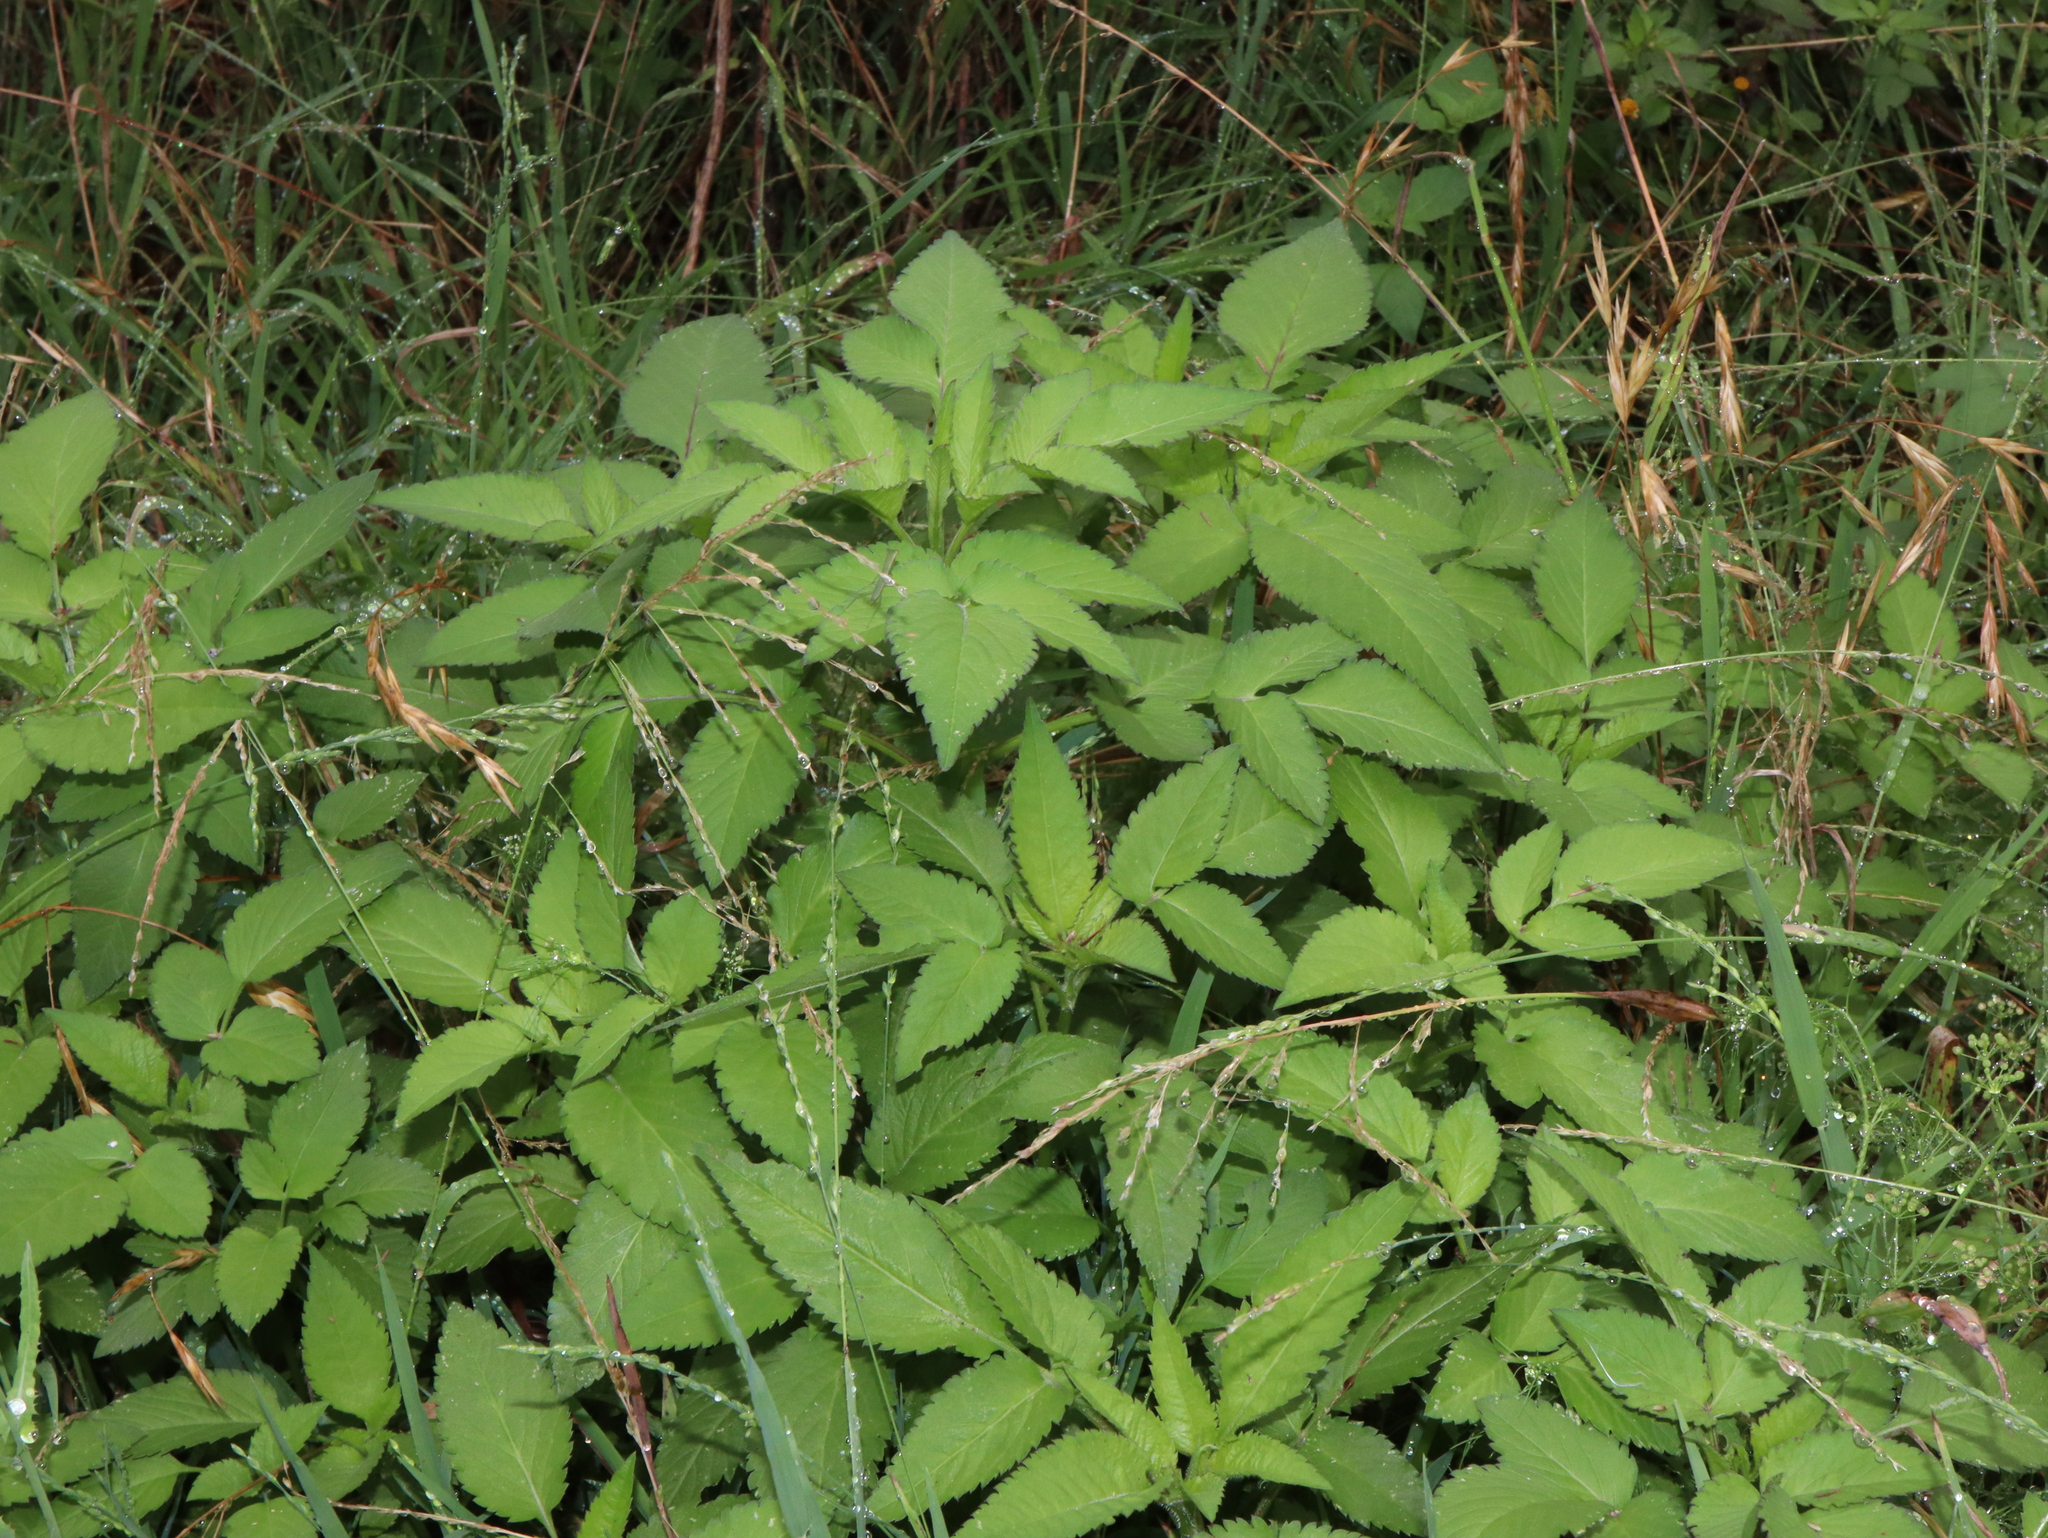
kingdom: Plantae
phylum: Tracheophyta
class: Magnoliopsida
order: Asterales
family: Asteraceae
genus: Bidens
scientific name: Bidens pilosa
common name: Black-jack
